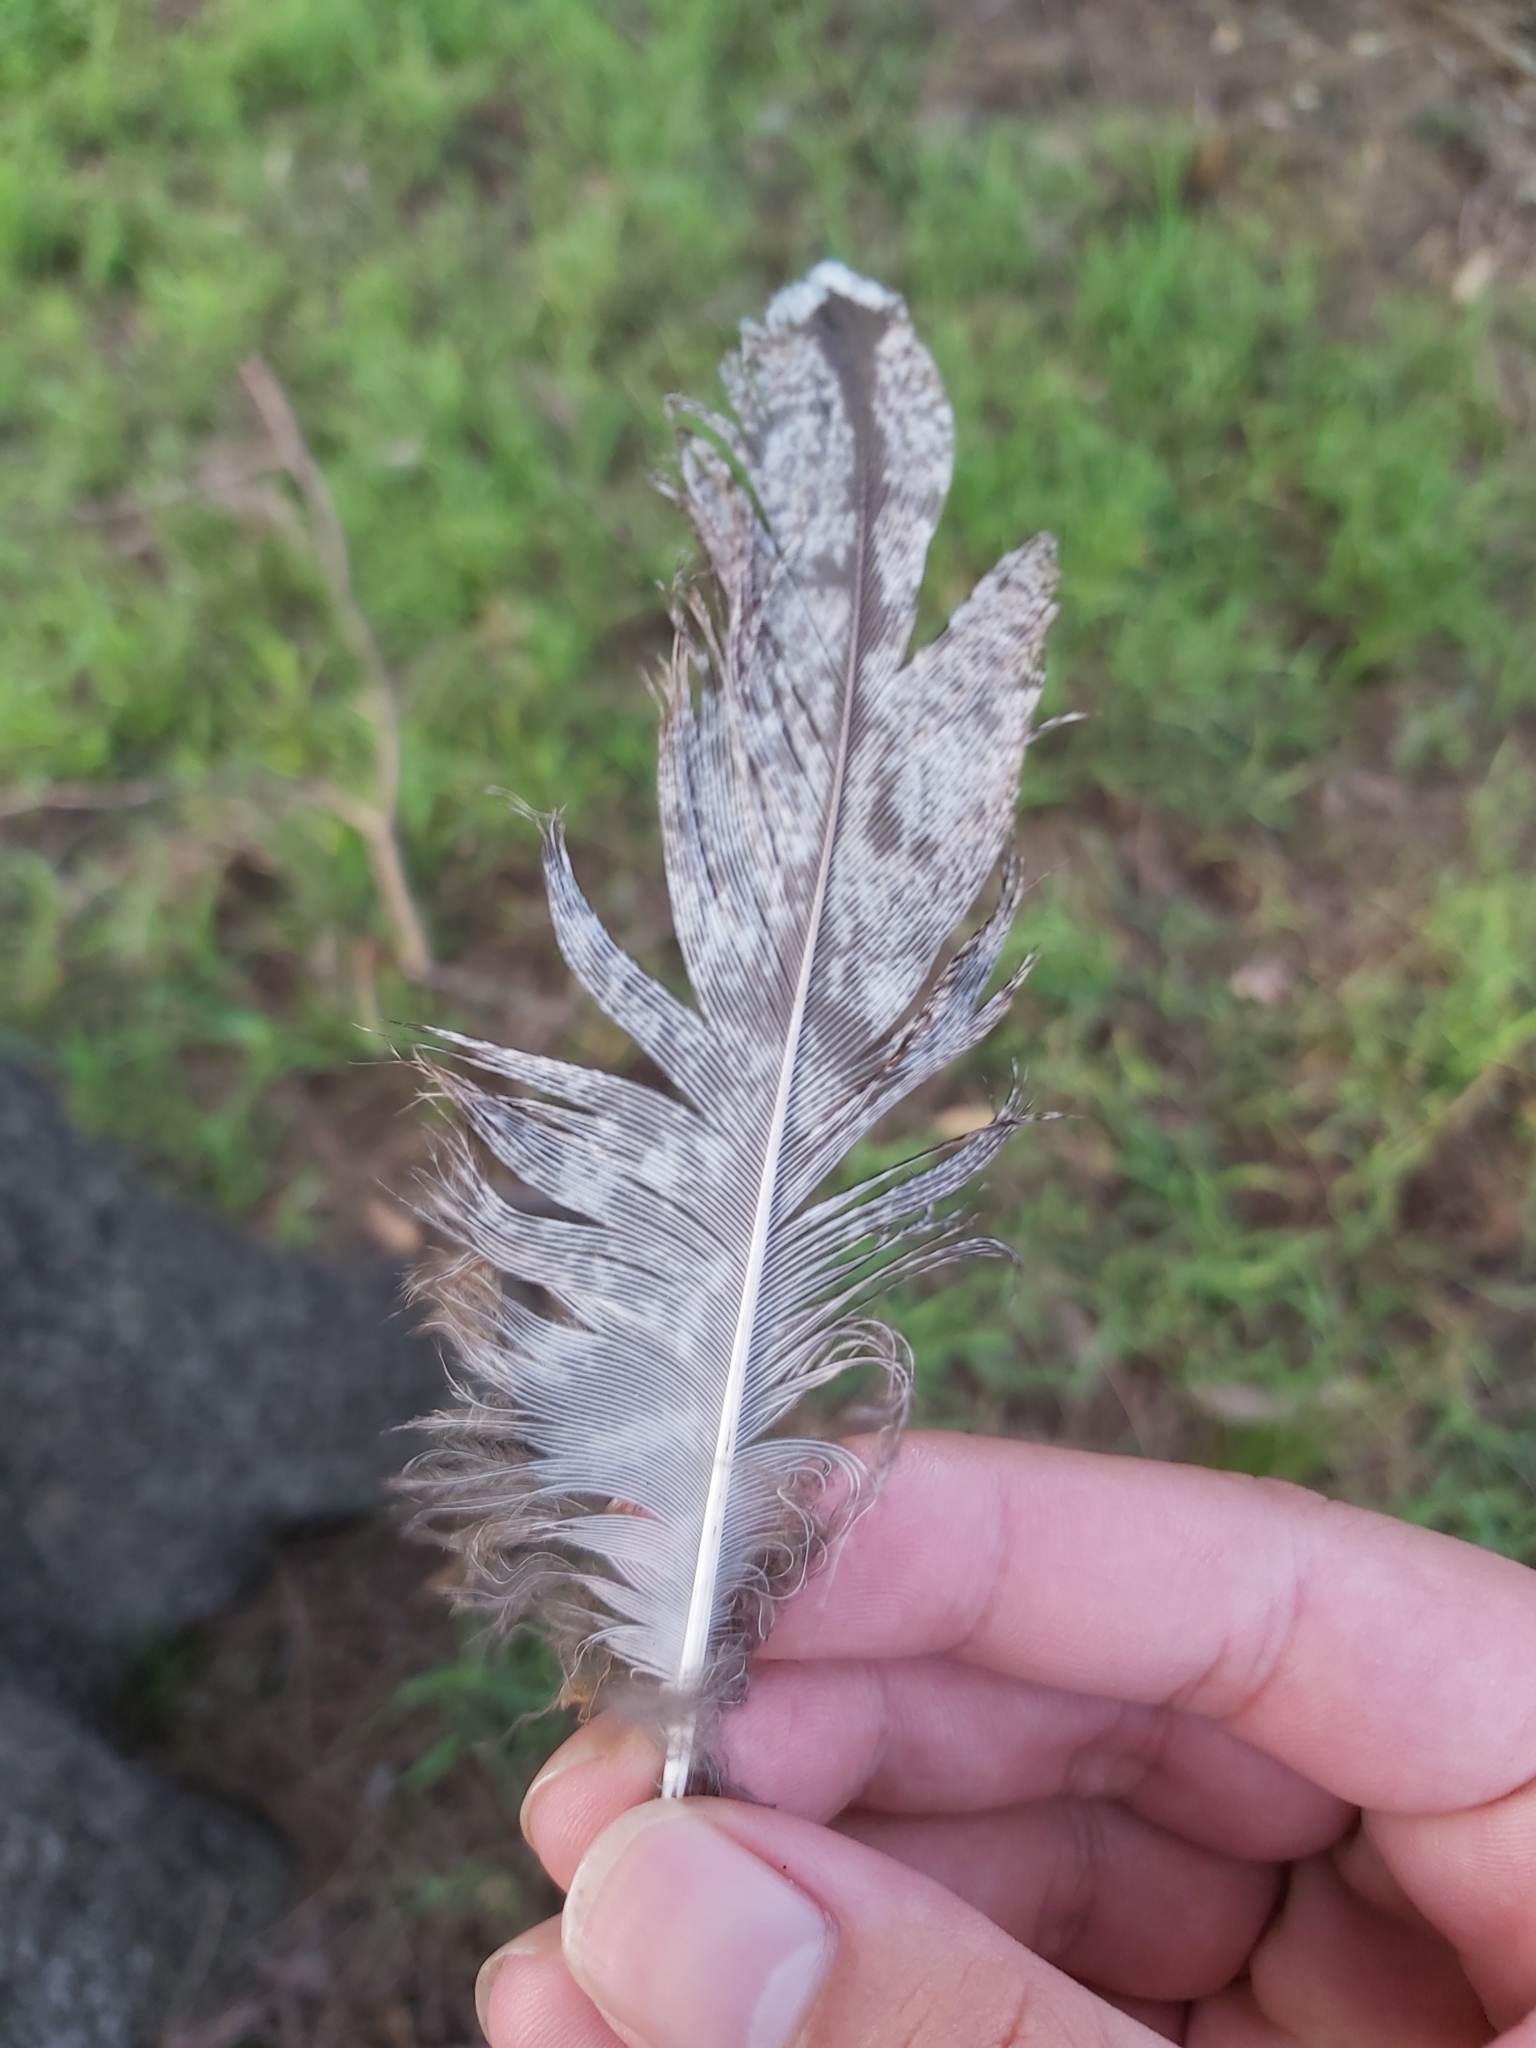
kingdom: Animalia
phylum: Chordata
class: Aves
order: Caprimulgiformes
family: Podargidae
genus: Podargus
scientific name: Podargus strigoides
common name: Tawny frogmouth
